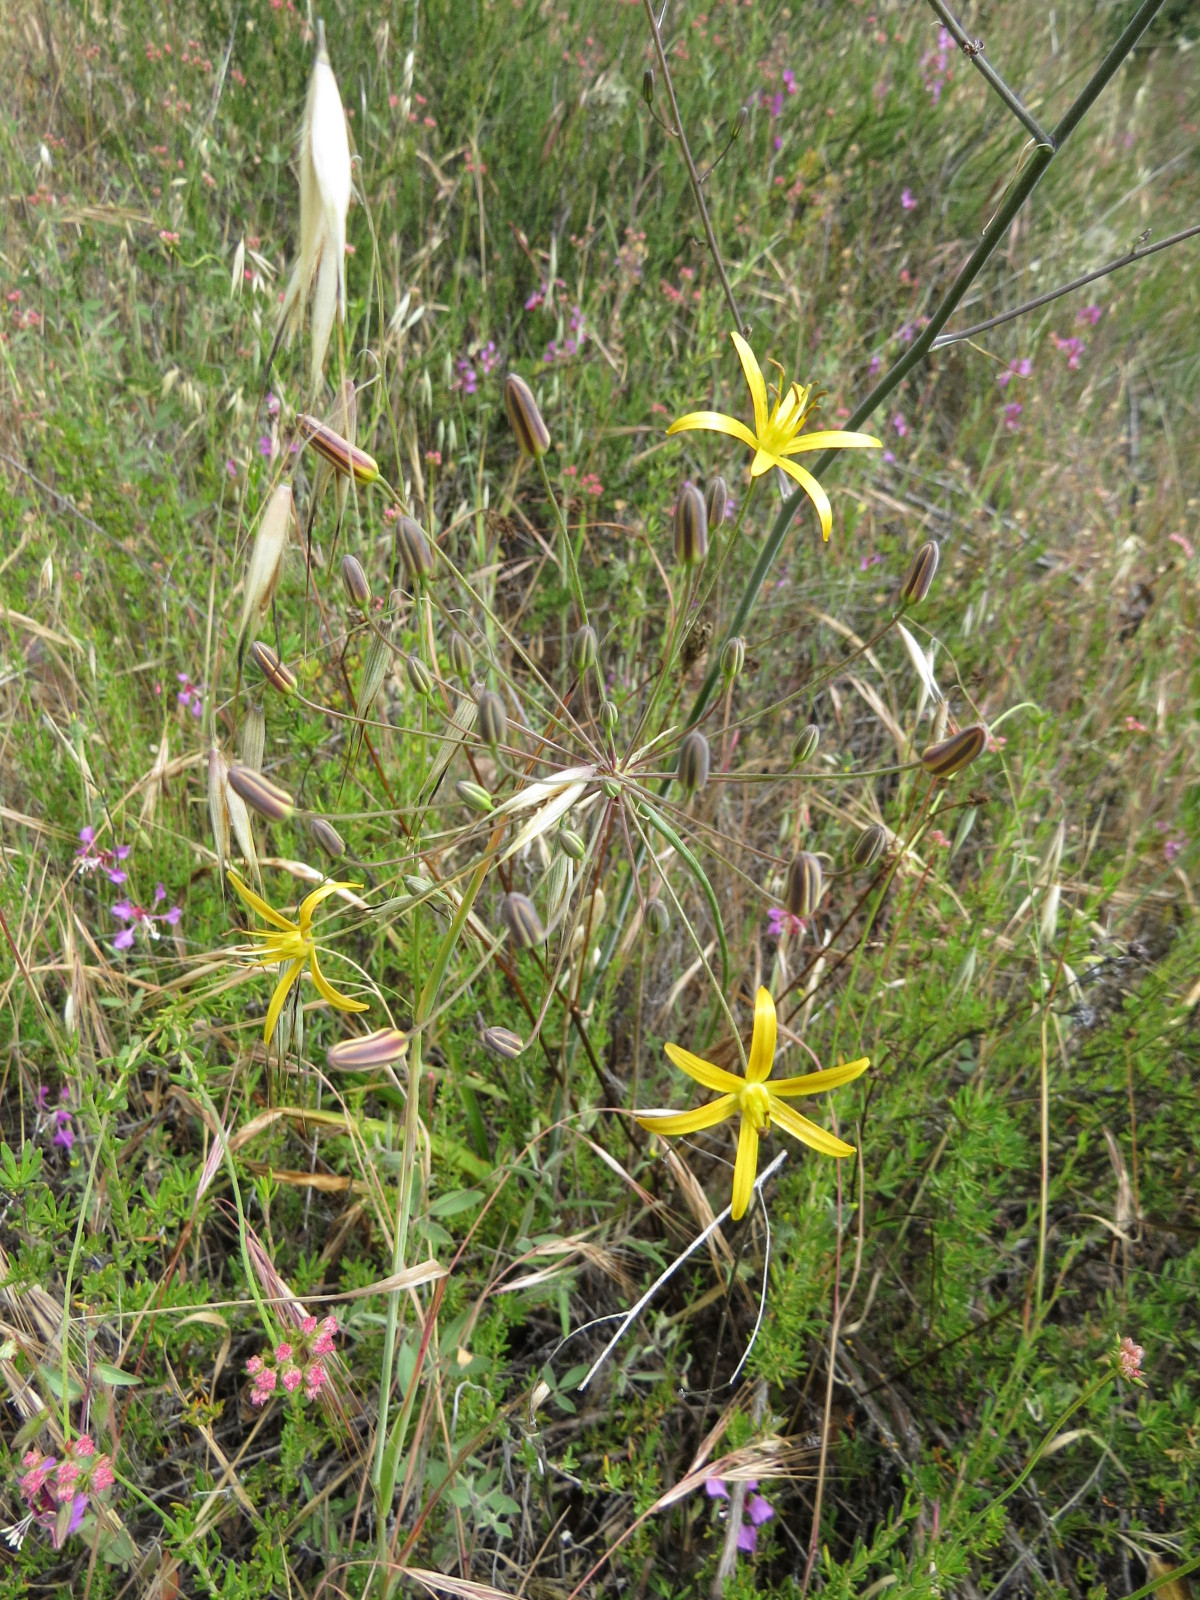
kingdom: Plantae
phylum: Tracheophyta
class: Liliopsida
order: Asparagales
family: Asparagaceae
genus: Bloomeria
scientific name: Bloomeria crocea
